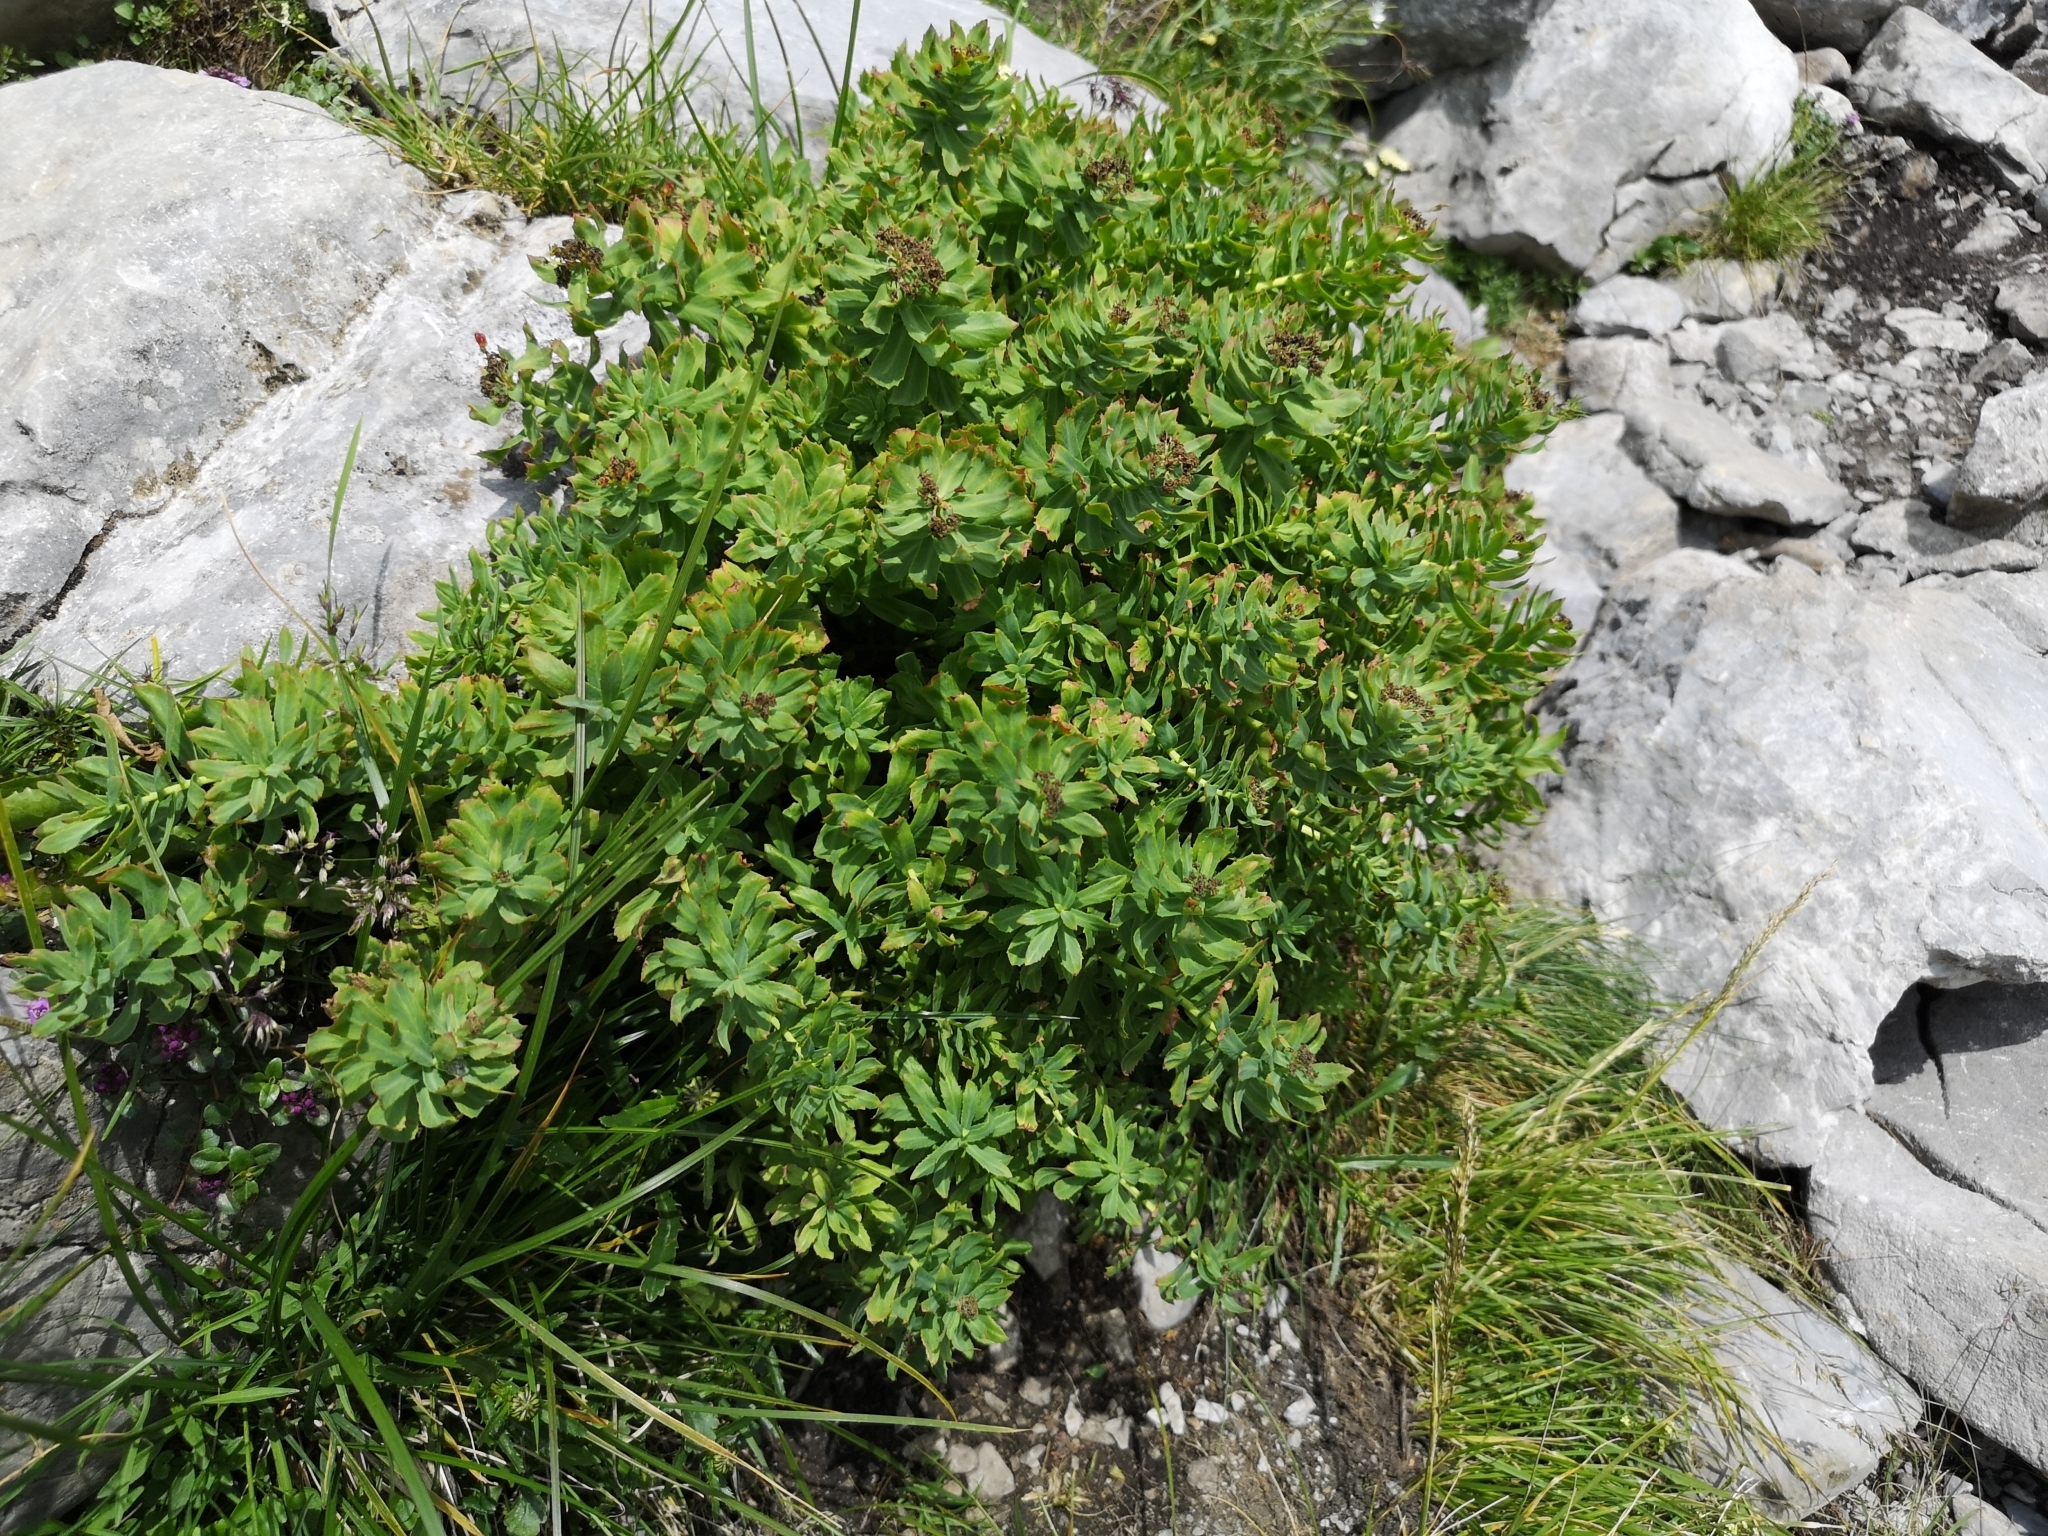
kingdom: Plantae
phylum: Tracheophyta
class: Magnoliopsida
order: Saxifragales
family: Crassulaceae
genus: Rhodiola
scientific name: Rhodiola rosea
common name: Roseroot
